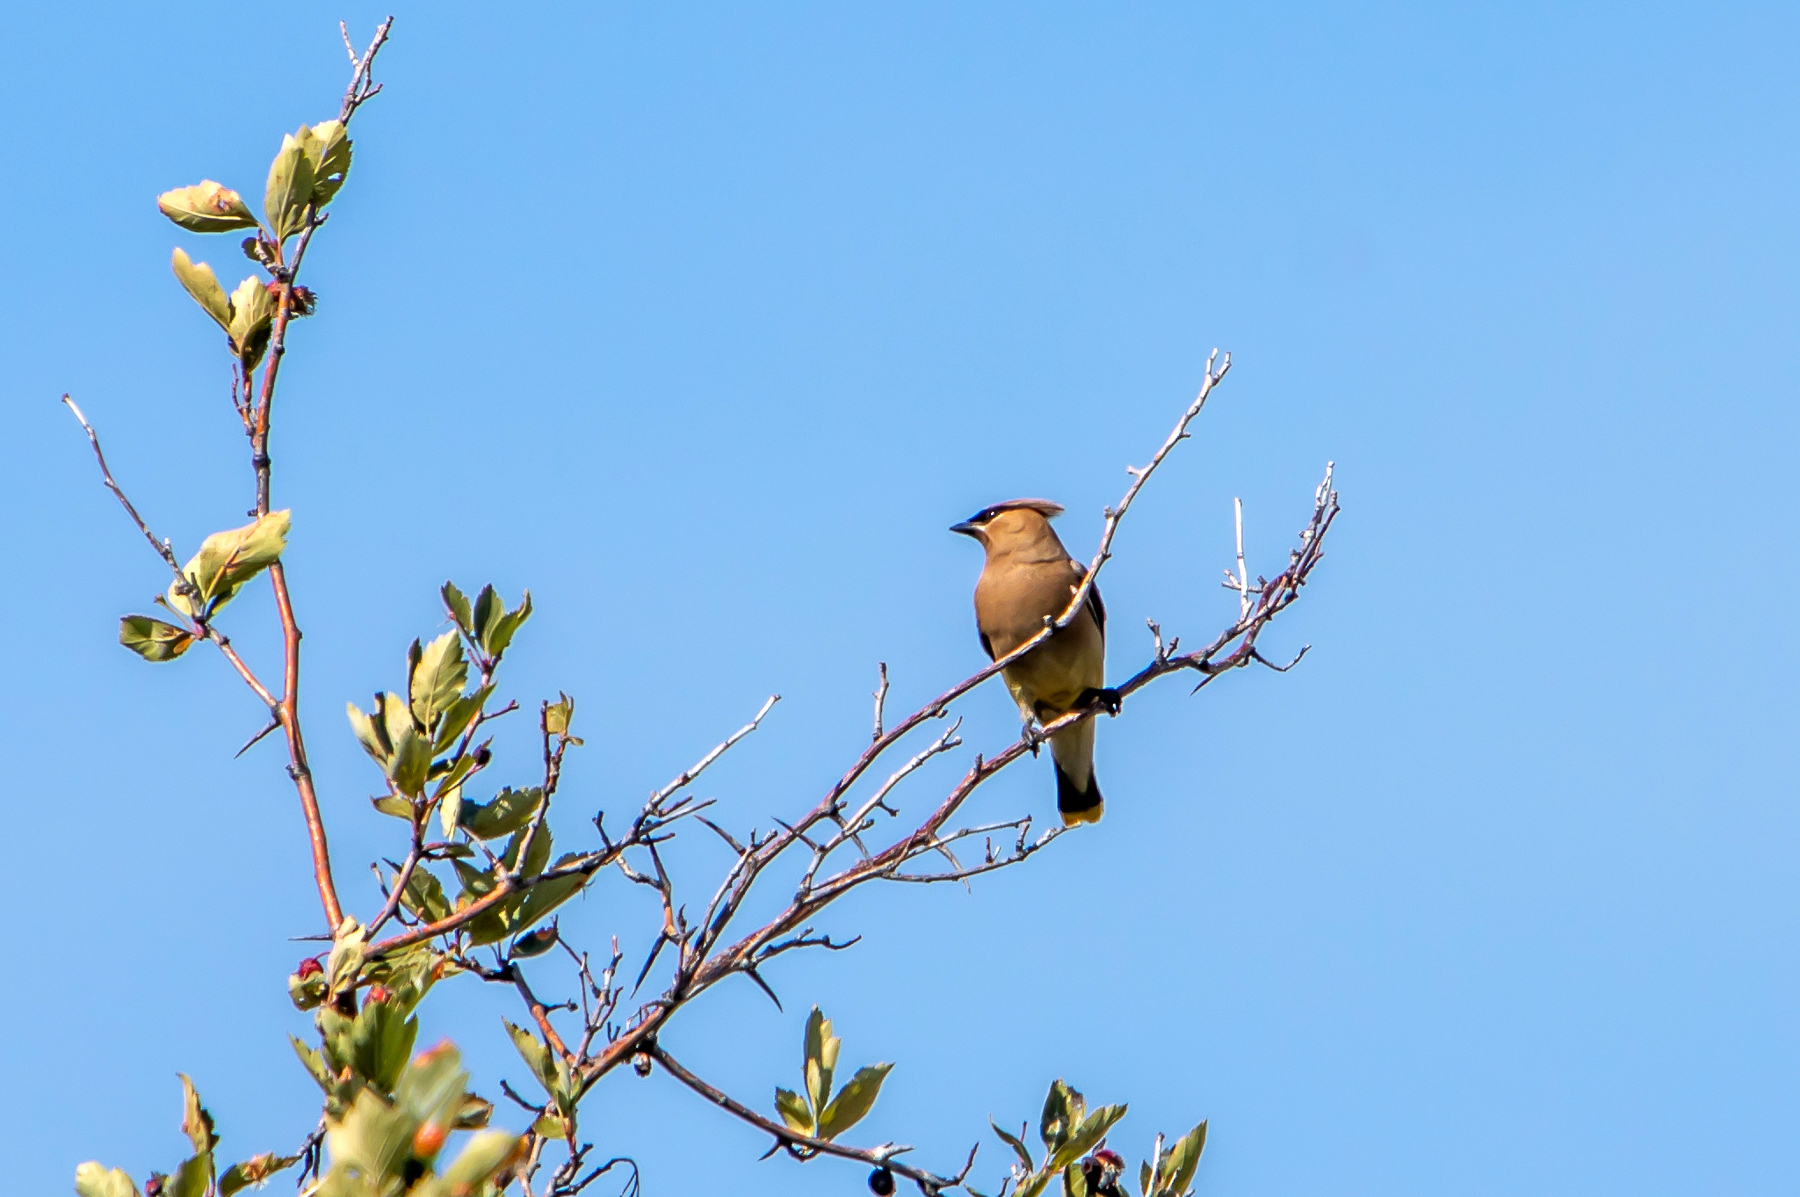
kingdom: Animalia
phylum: Chordata
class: Aves
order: Passeriformes
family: Bombycillidae
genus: Bombycilla
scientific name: Bombycilla cedrorum
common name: Cedar waxwing
